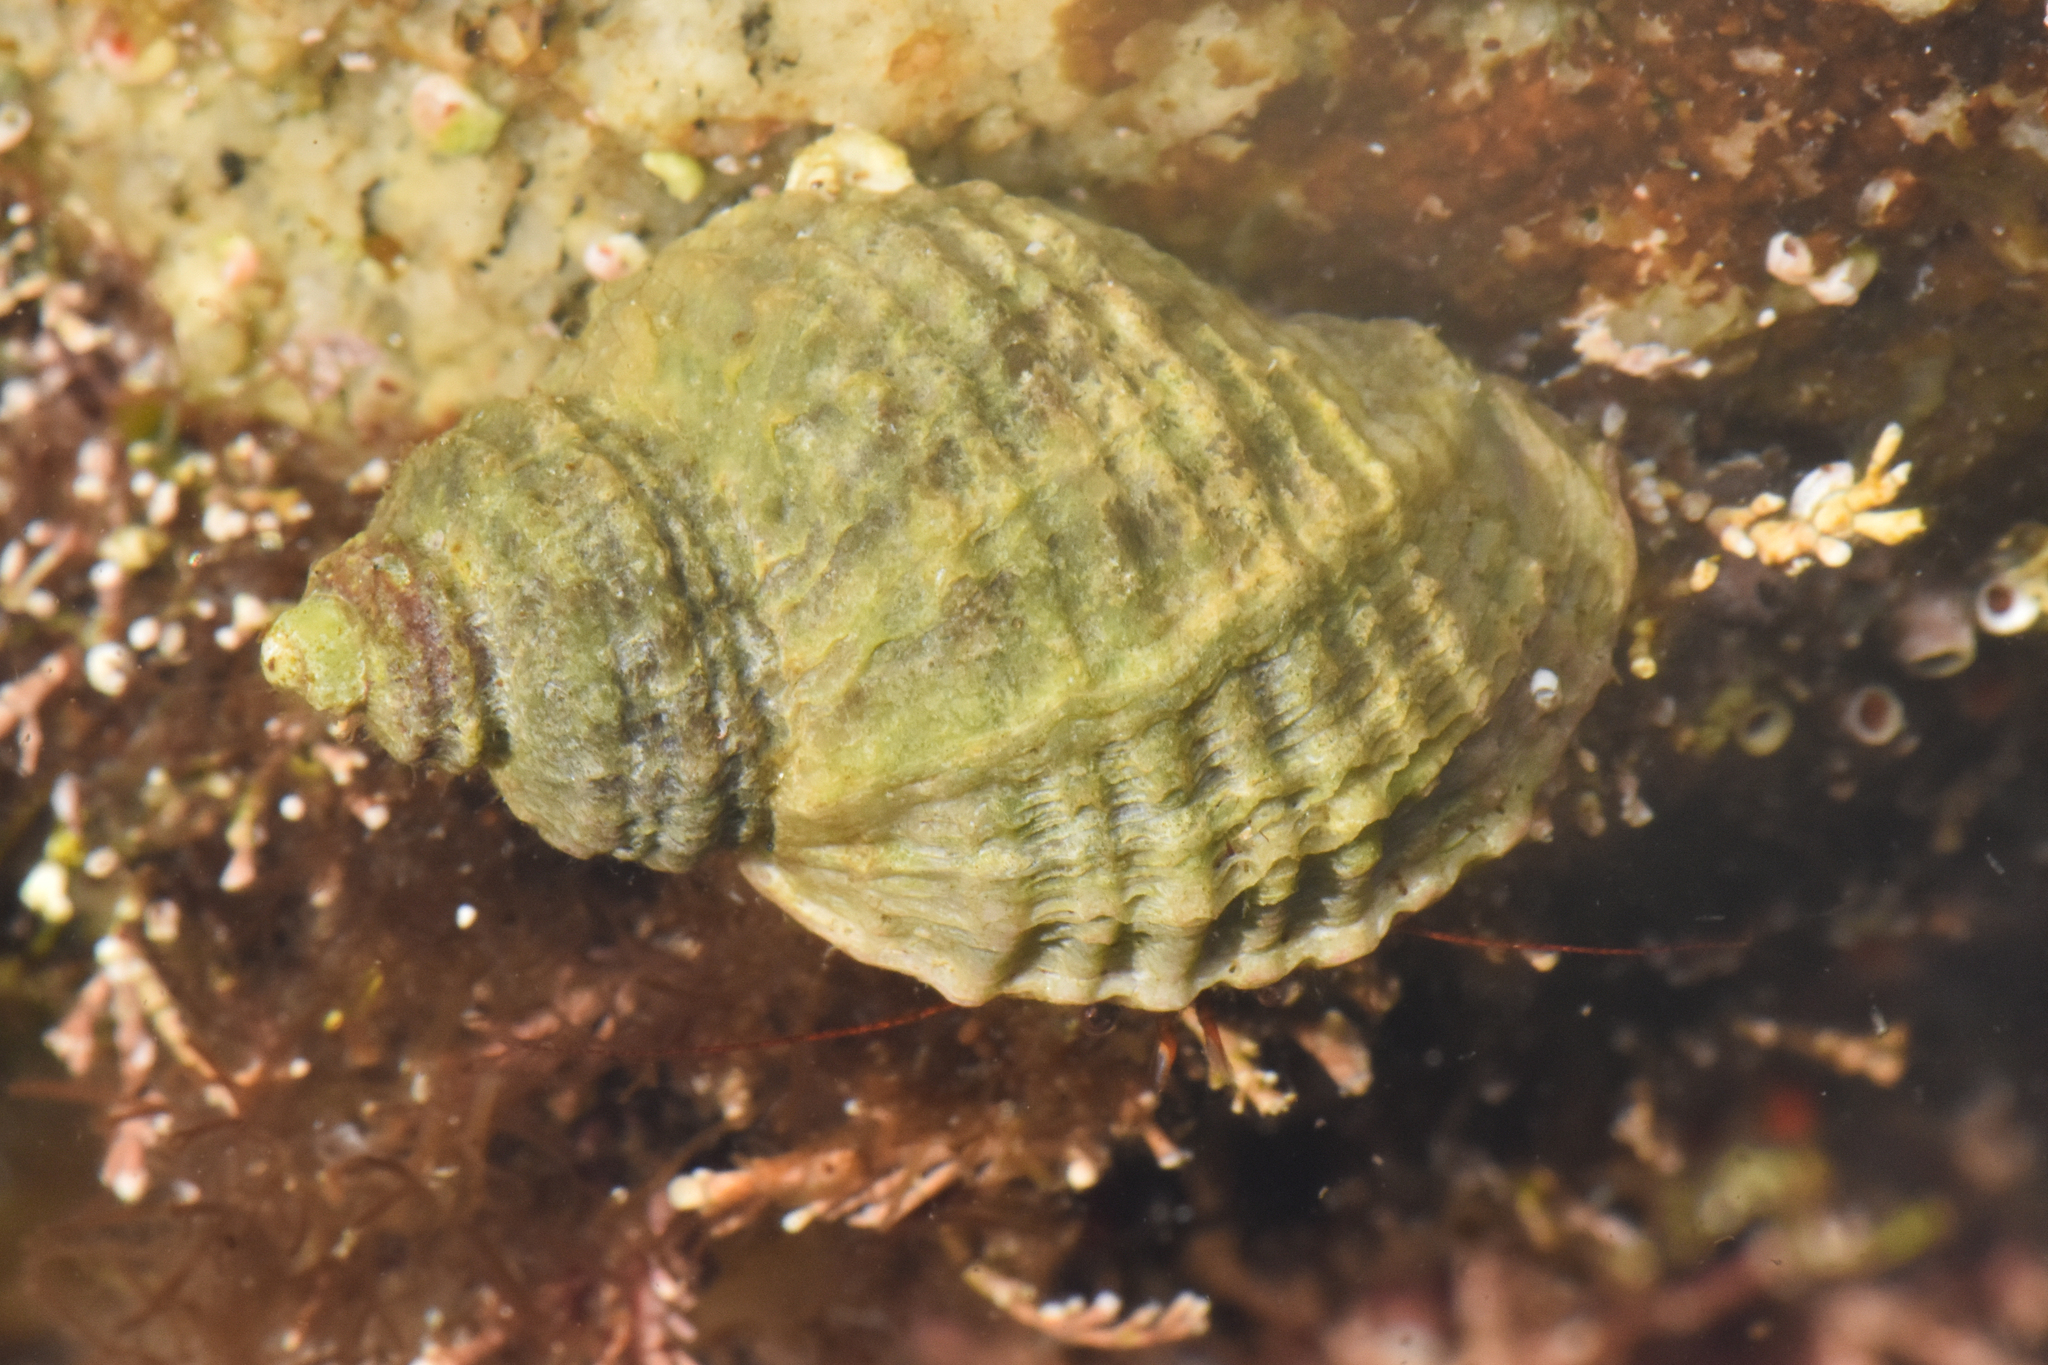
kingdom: Animalia
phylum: Mollusca
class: Gastropoda
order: Neogastropoda
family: Muricidae
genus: Nucella
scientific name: Nucella ostrina
